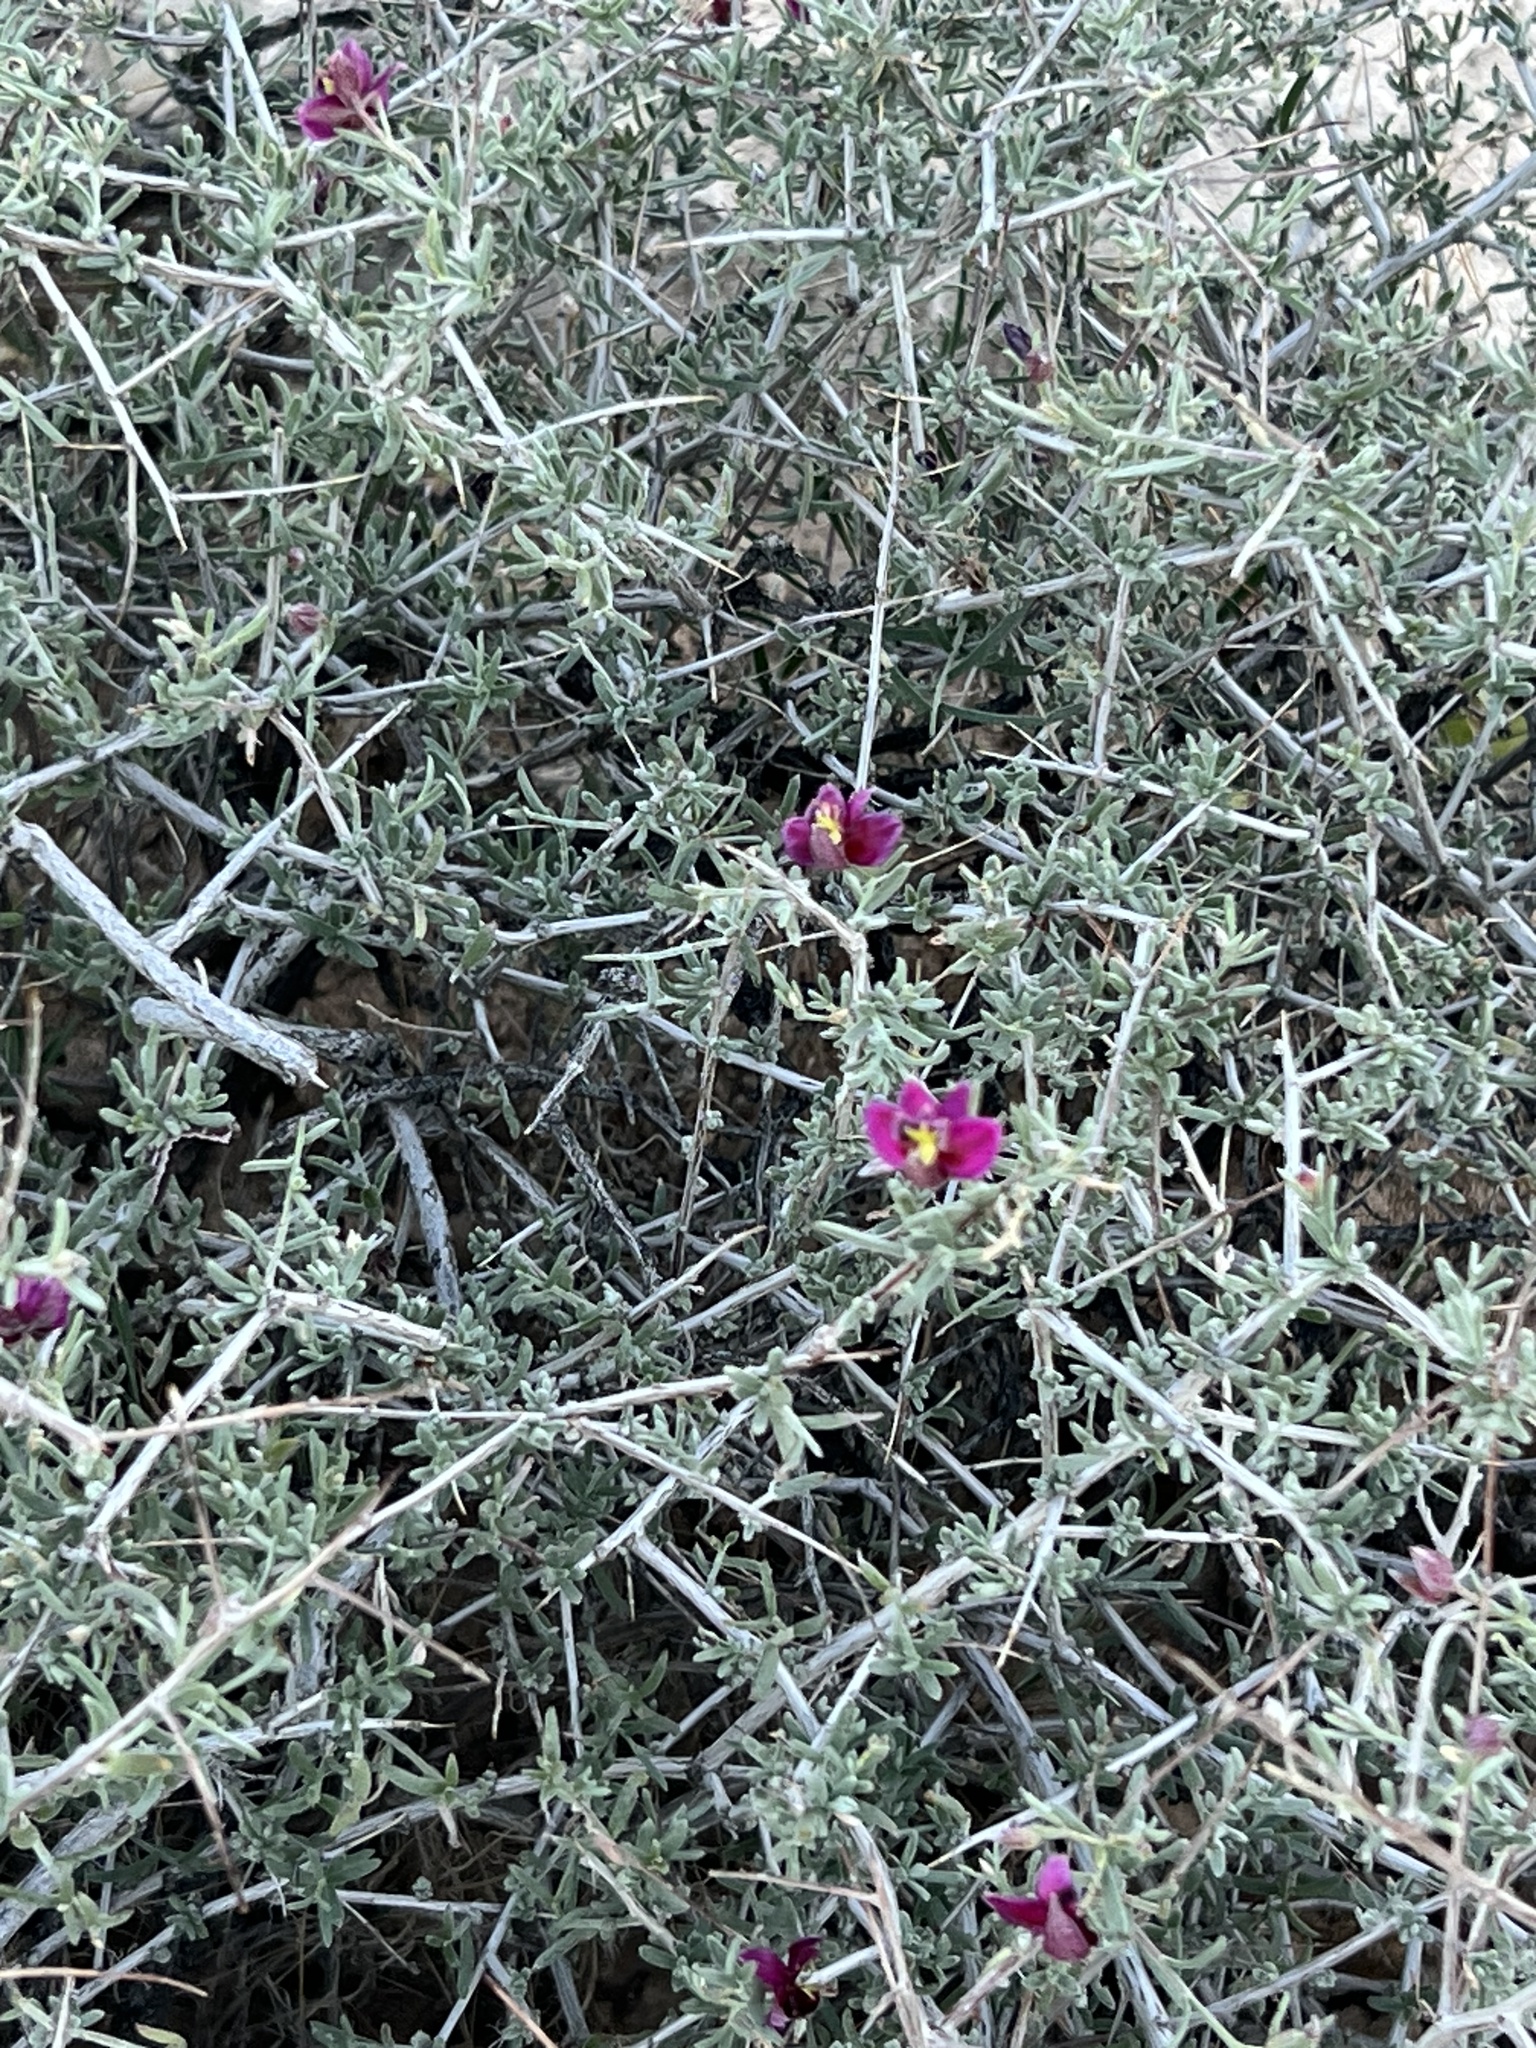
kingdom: Plantae
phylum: Tracheophyta
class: Magnoliopsida
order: Zygophyllales
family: Krameriaceae
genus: Krameria
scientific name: Krameria erecta
